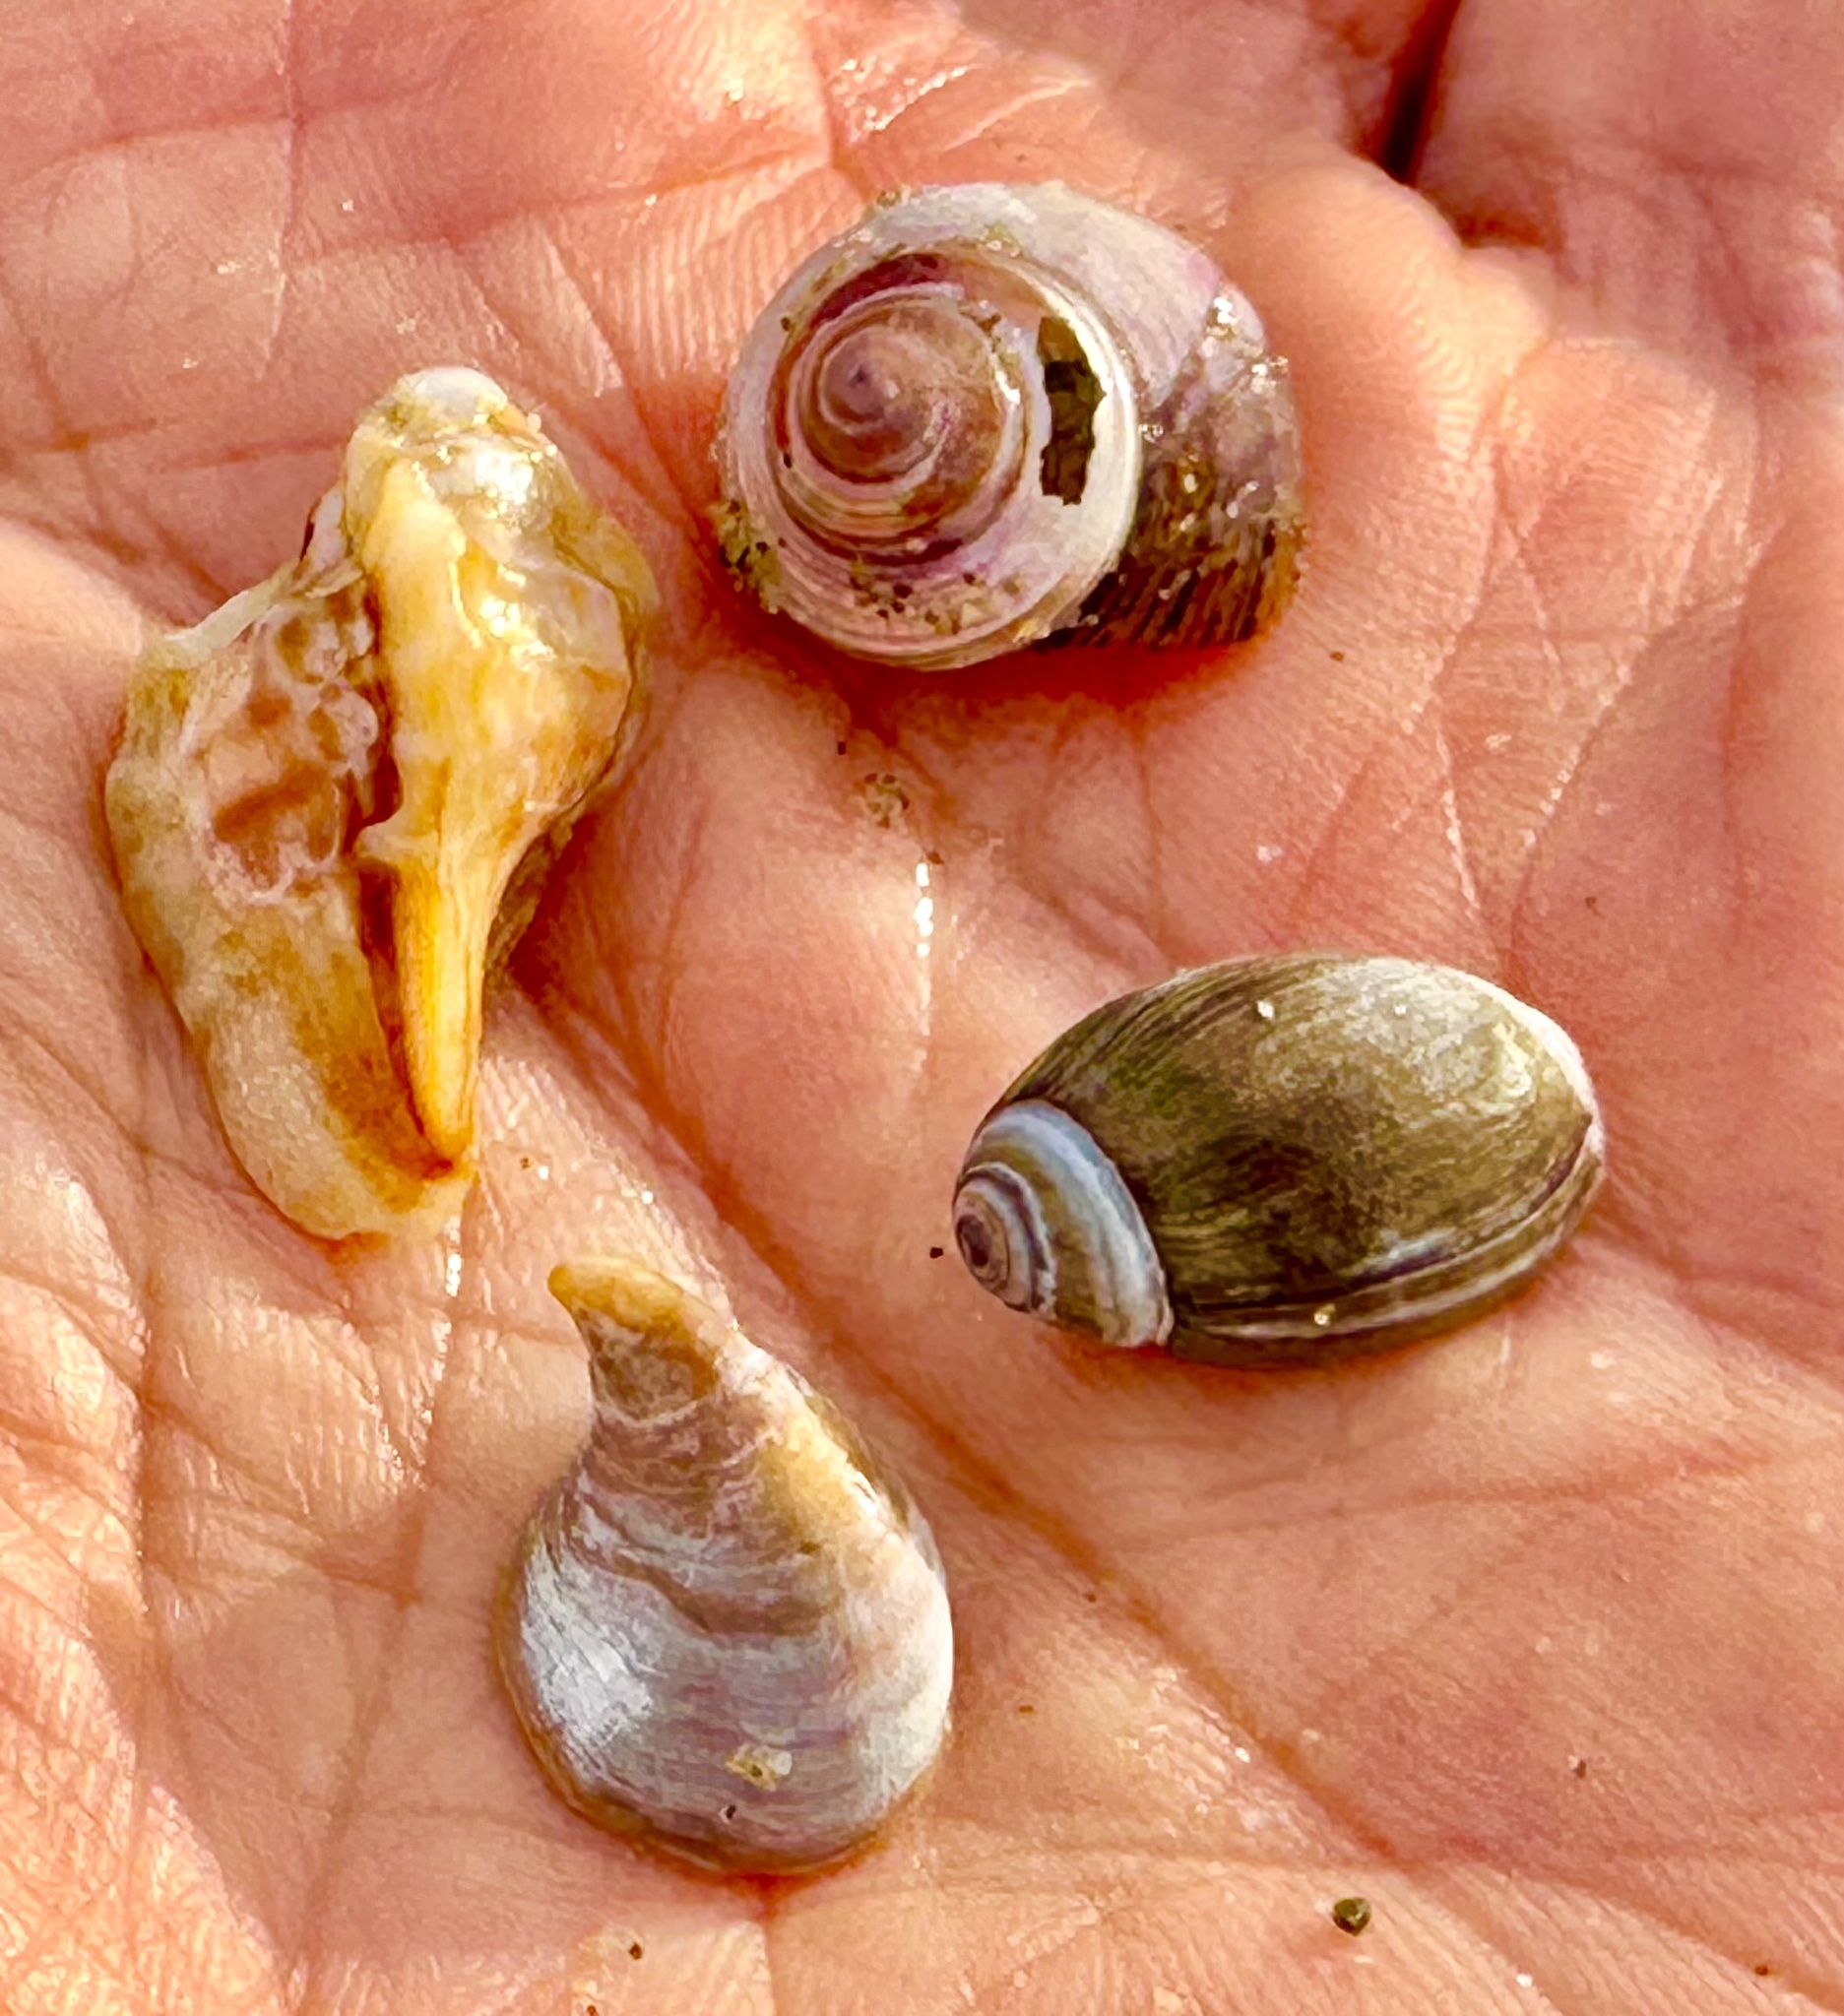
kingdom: Animalia
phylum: Mollusca
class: Gastropoda
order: Neogastropoda
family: Olividae
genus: Callianax
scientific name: Callianax biplicata
